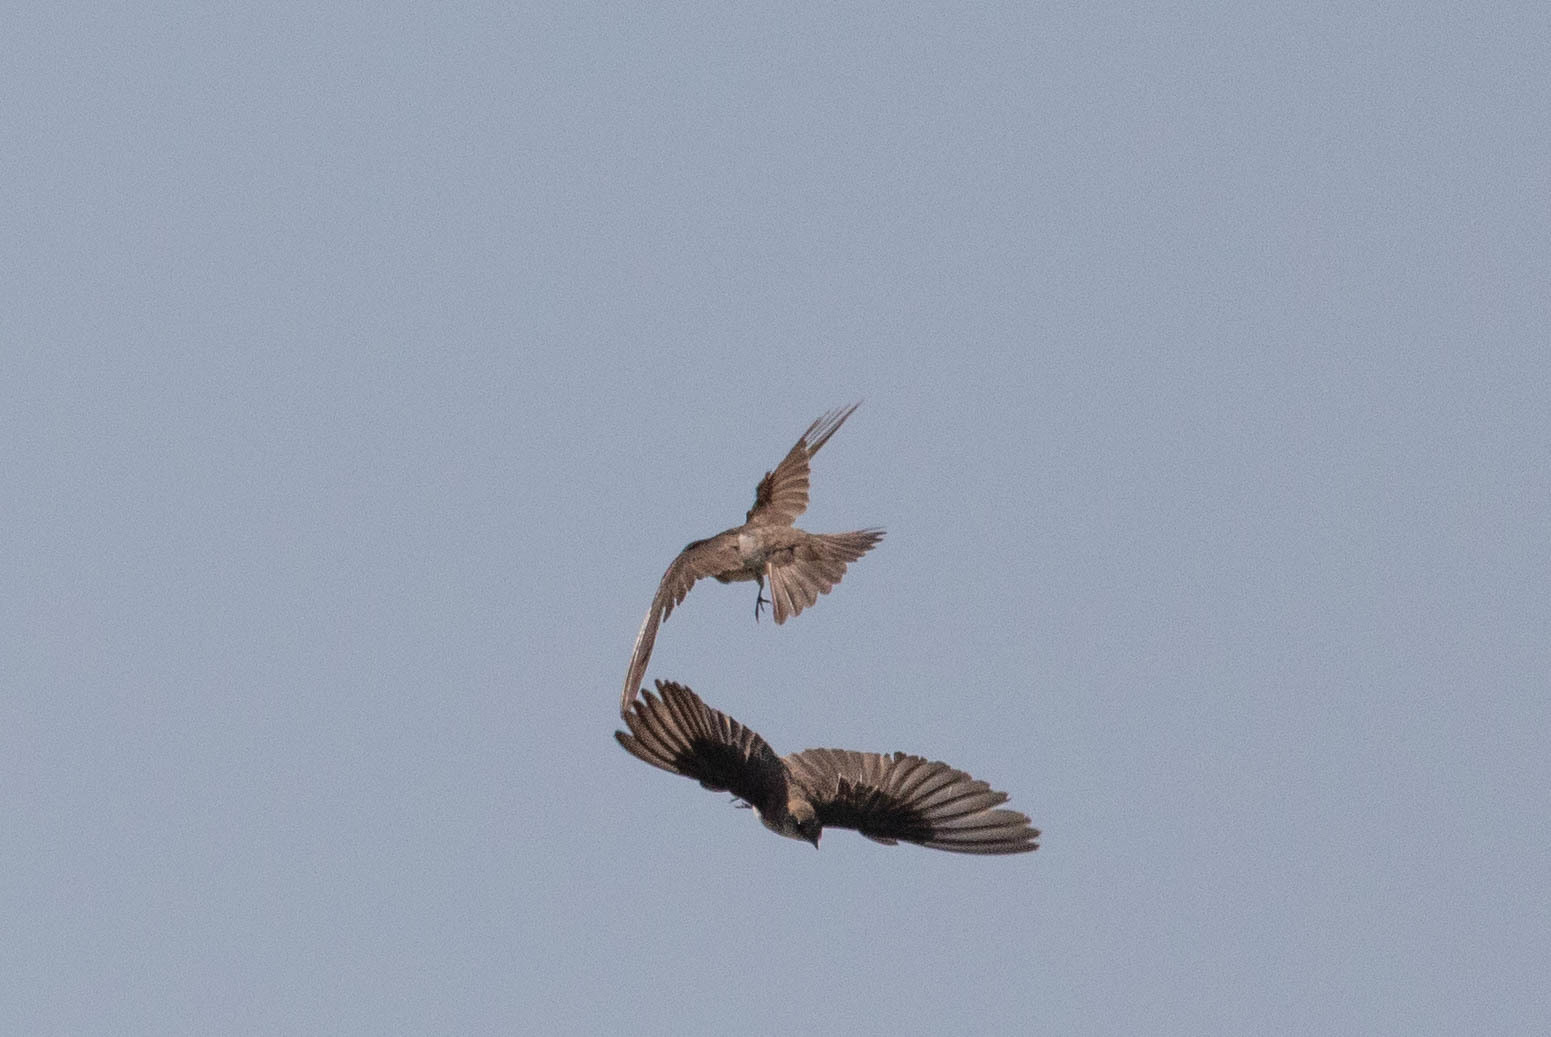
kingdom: Animalia
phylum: Chordata
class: Aves
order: Passeriformes
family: Hirundinidae
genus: Stelgidopteryx
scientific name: Stelgidopteryx serripennis
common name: Northern rough-winged swallow
